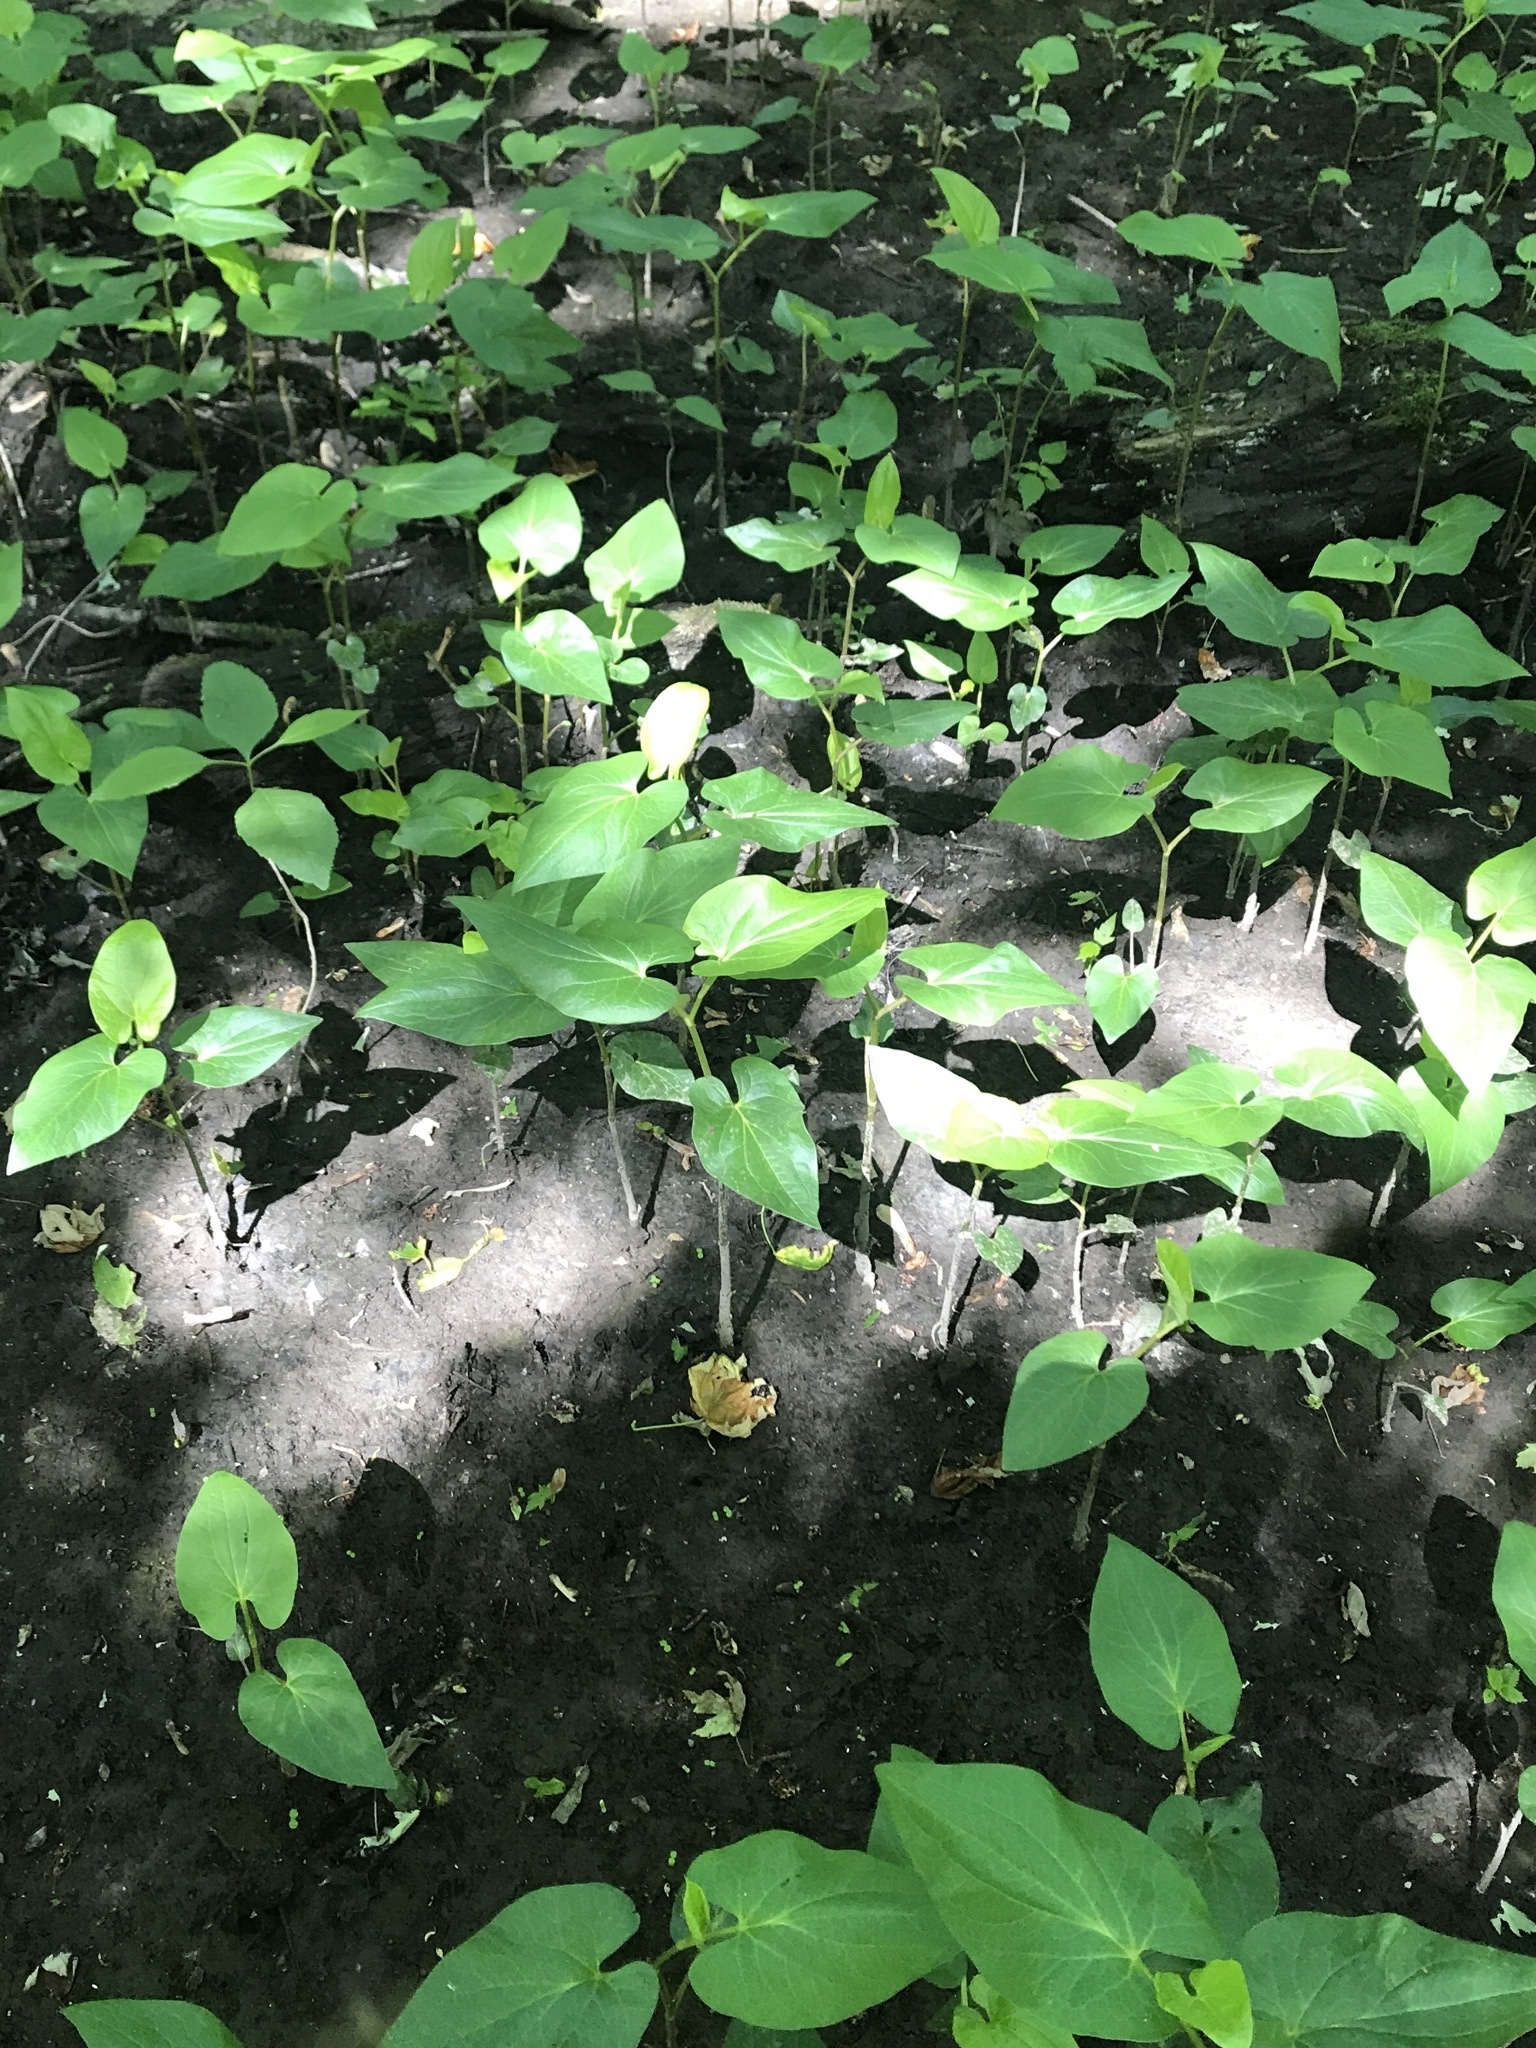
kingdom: Plantae
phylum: Tracheophyta
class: Magnoliopsida
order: Piperales
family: Saururaceae
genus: Saururus
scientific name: Saururus cernuus
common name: Lizard's-tail
